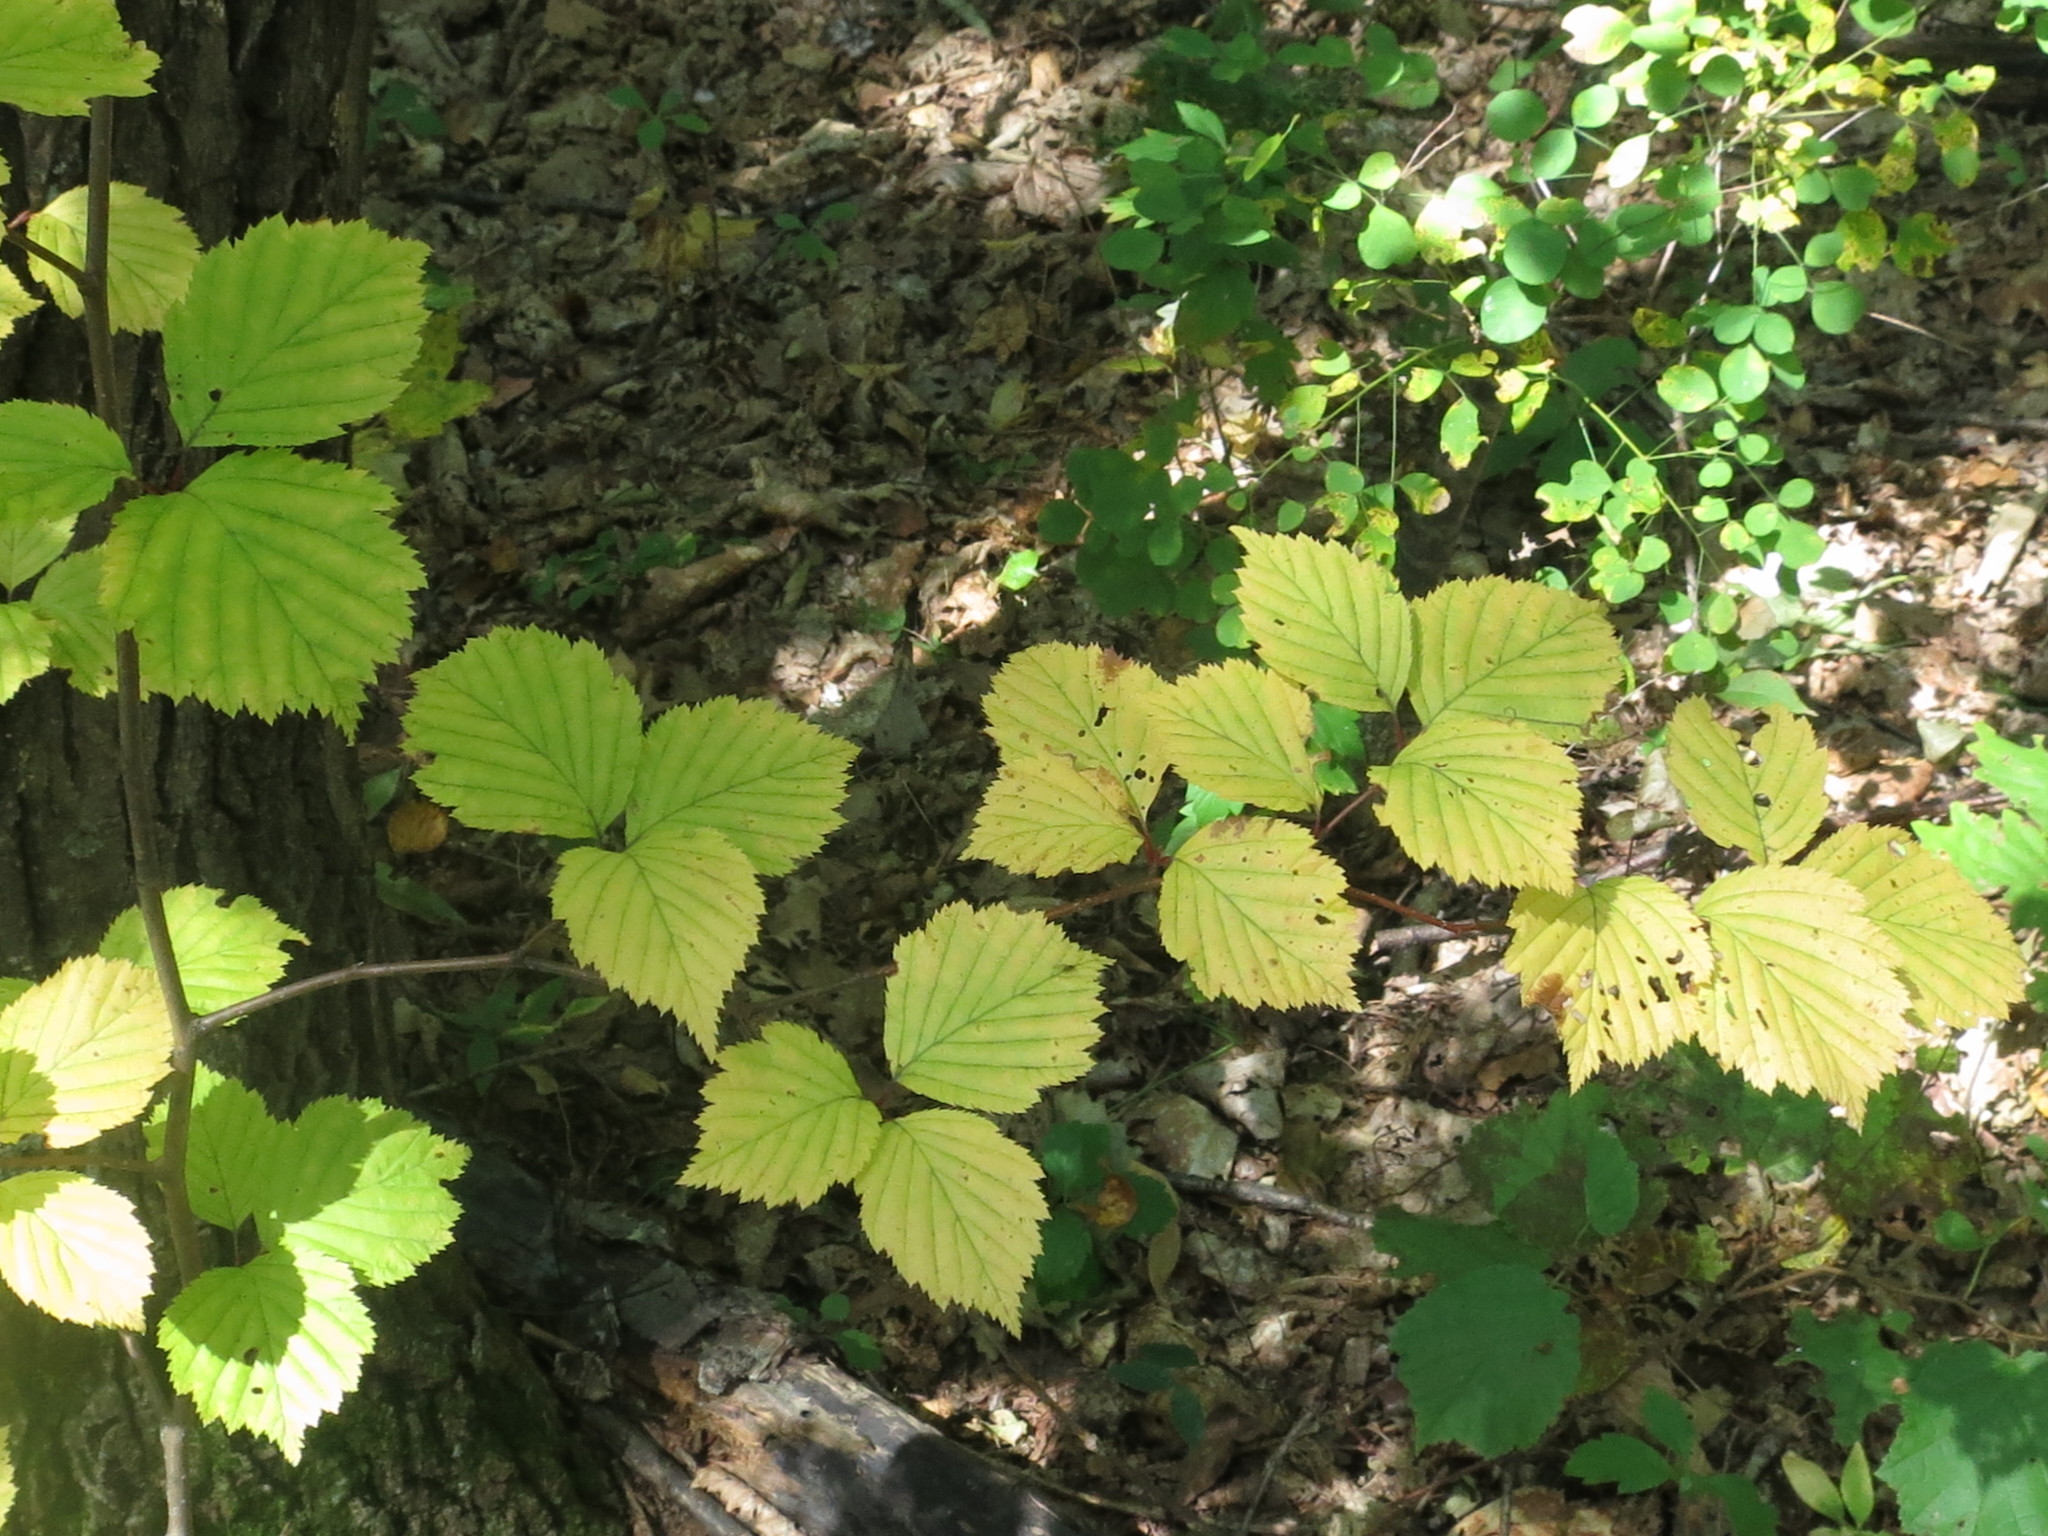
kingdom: Plantae
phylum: Tracheophyta
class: Magnoliopsida
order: Rosales
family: Rosaceae
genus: Sorbus
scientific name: Sorbus alnifolia
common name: Mountain-ash
